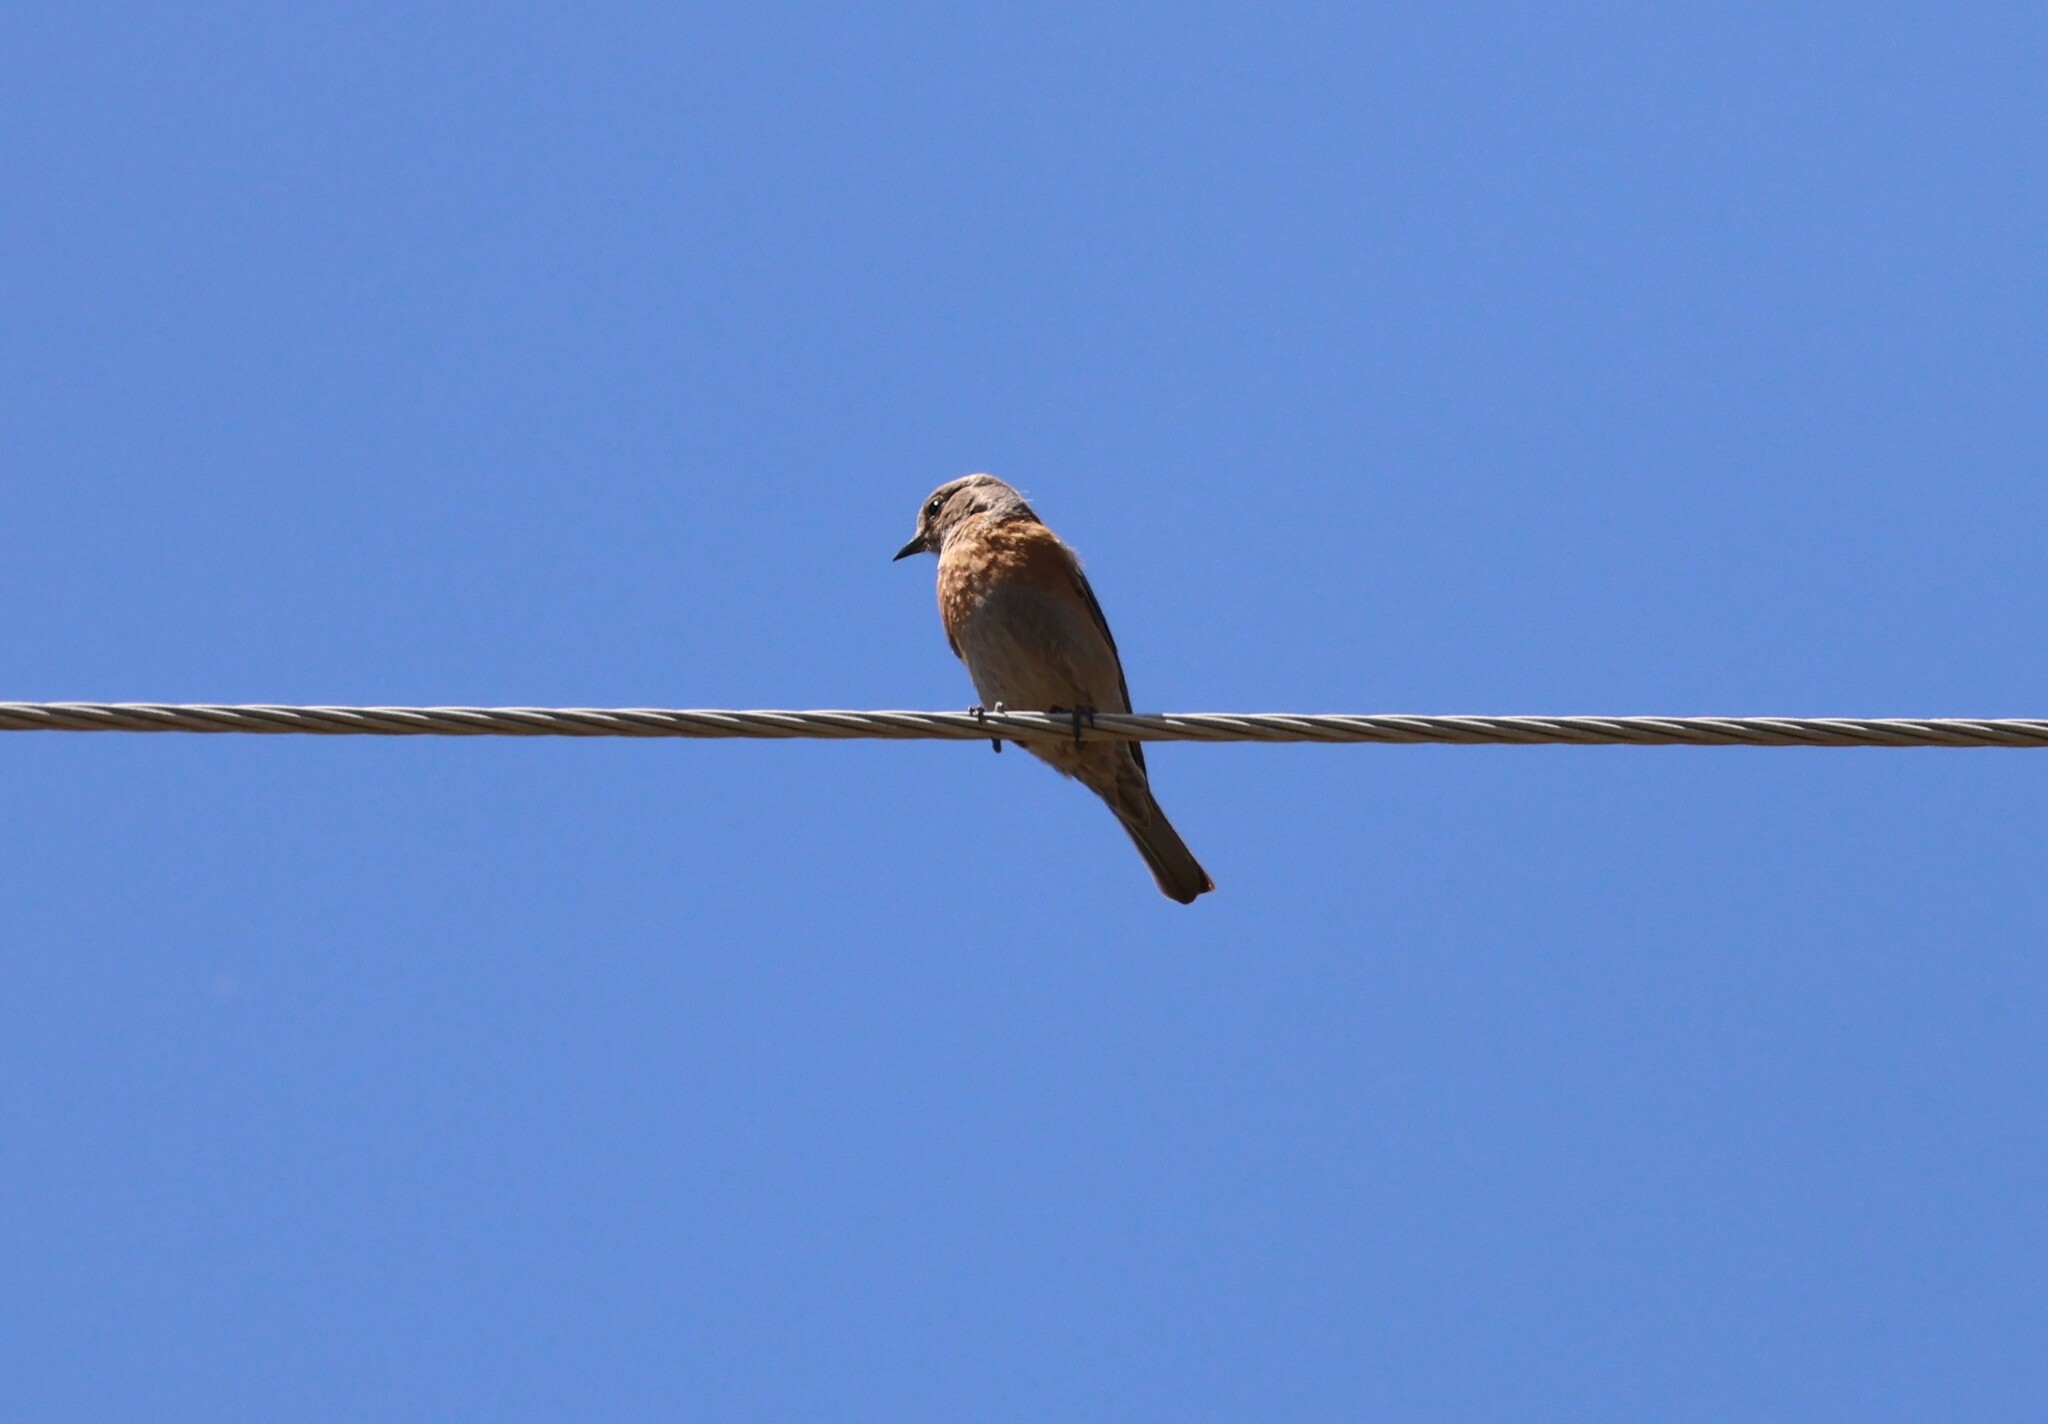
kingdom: Animalia
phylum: Chordata
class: Aves
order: Passeriformes
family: Turdidae
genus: Sialia
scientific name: Sialia mexicana
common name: Western bluebird
